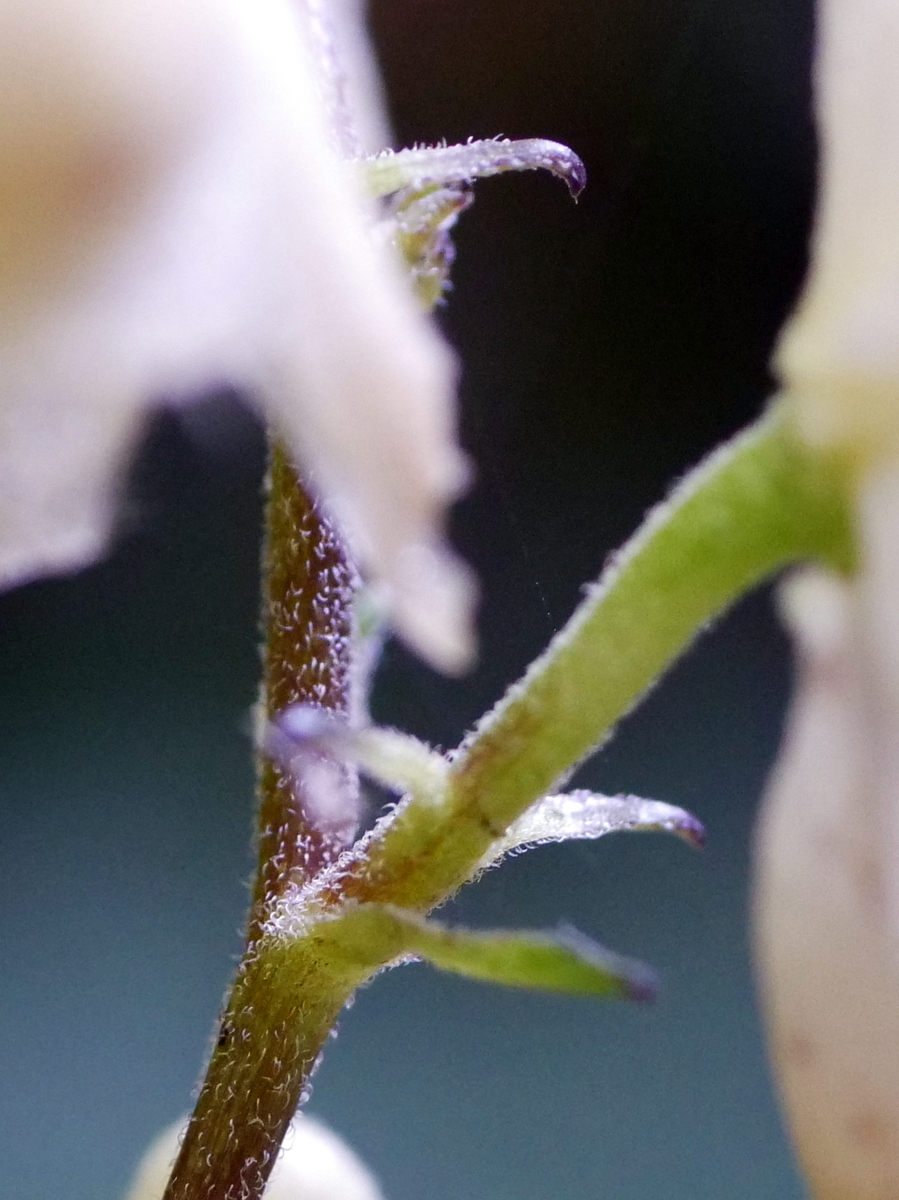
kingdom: Plantae
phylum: Tracheophyta
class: Magnoliopsida
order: Ranunculales
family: Ranunculaceae
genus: Aconitum
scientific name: Aconitum lycoctonum
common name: Wolf's-bane
